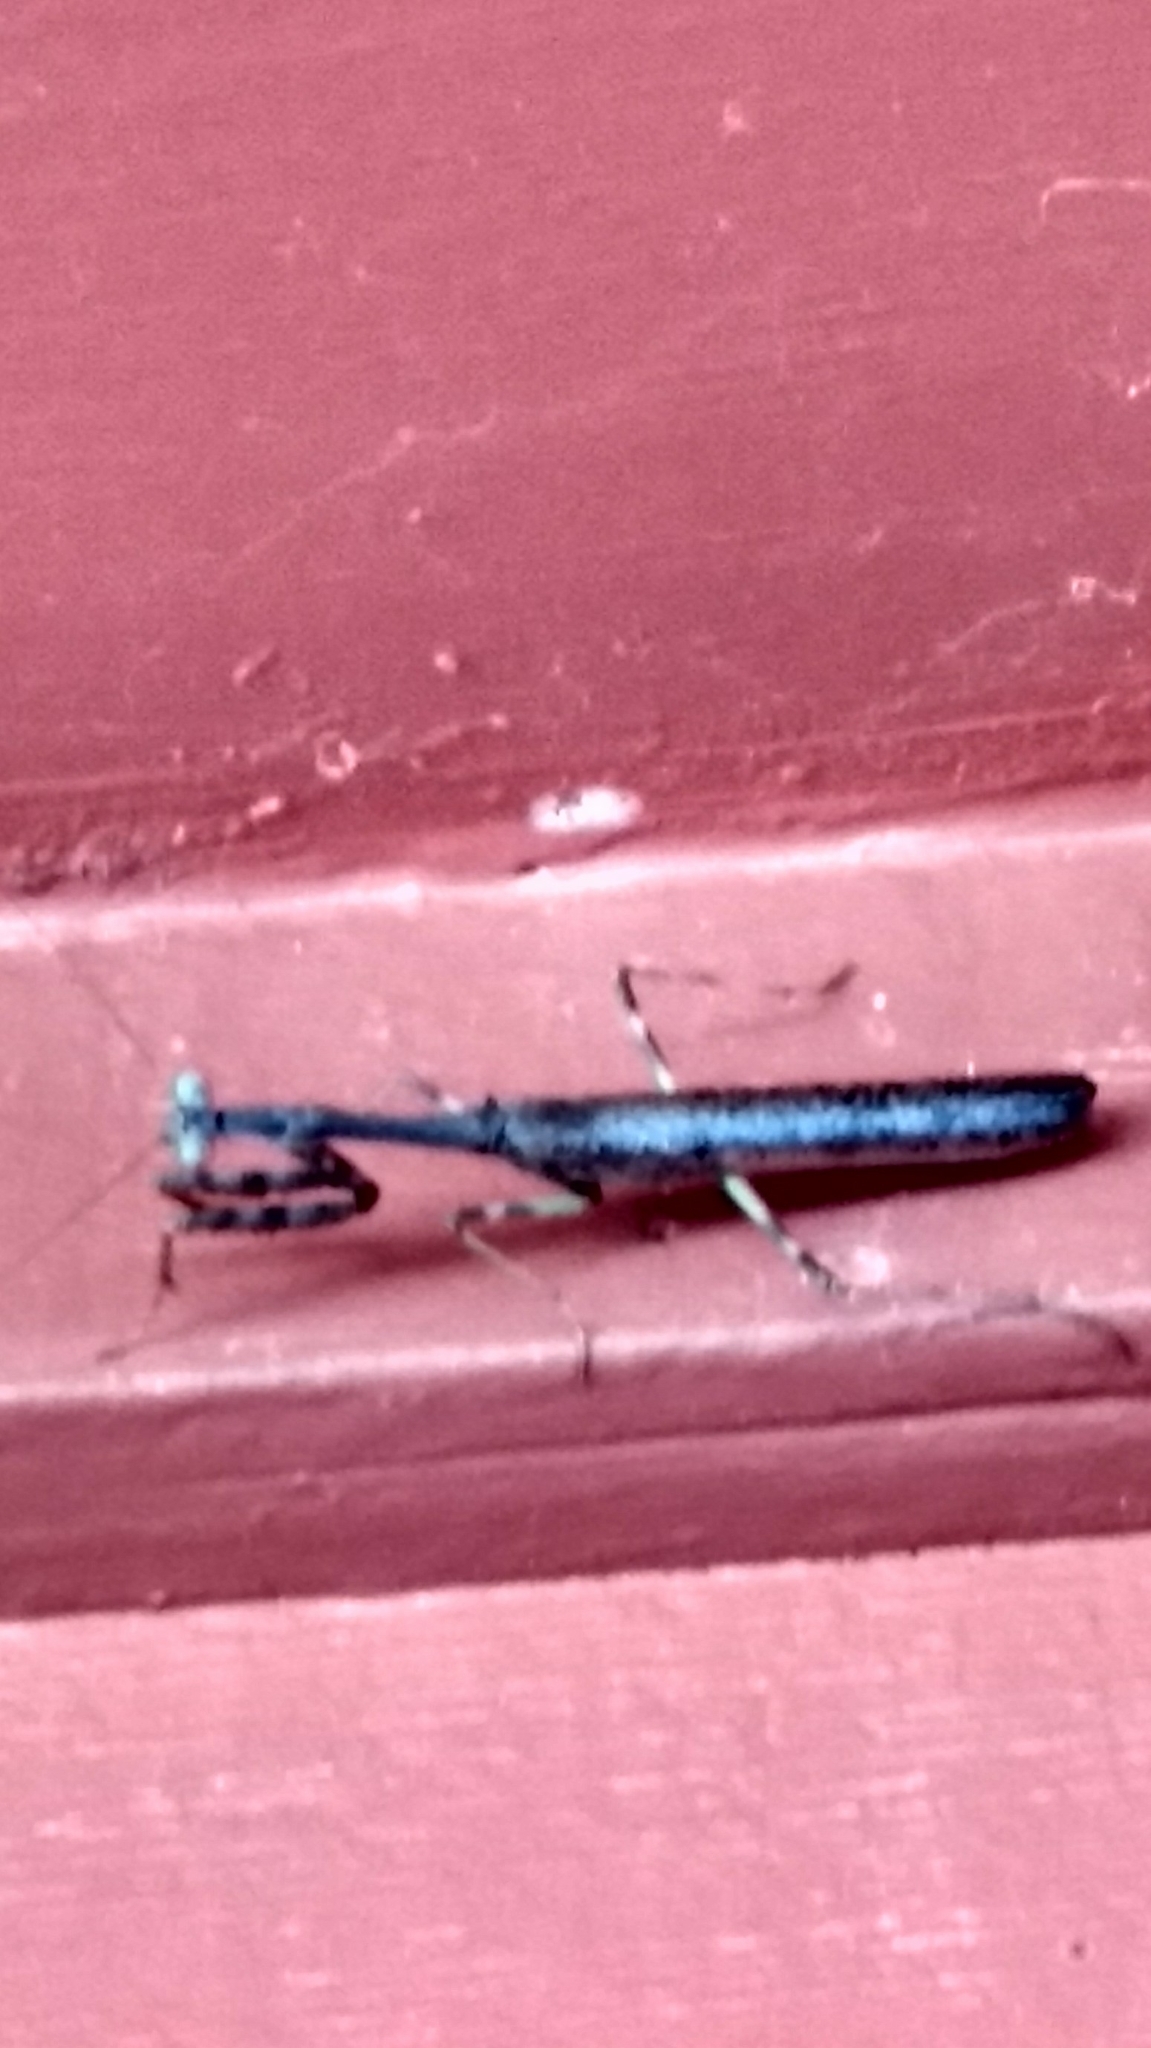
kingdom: Animalia
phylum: Arthropoda
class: Insecta
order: Mantodea
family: Mantidae
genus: Stagmomantis
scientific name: Stagmomantis carolina
